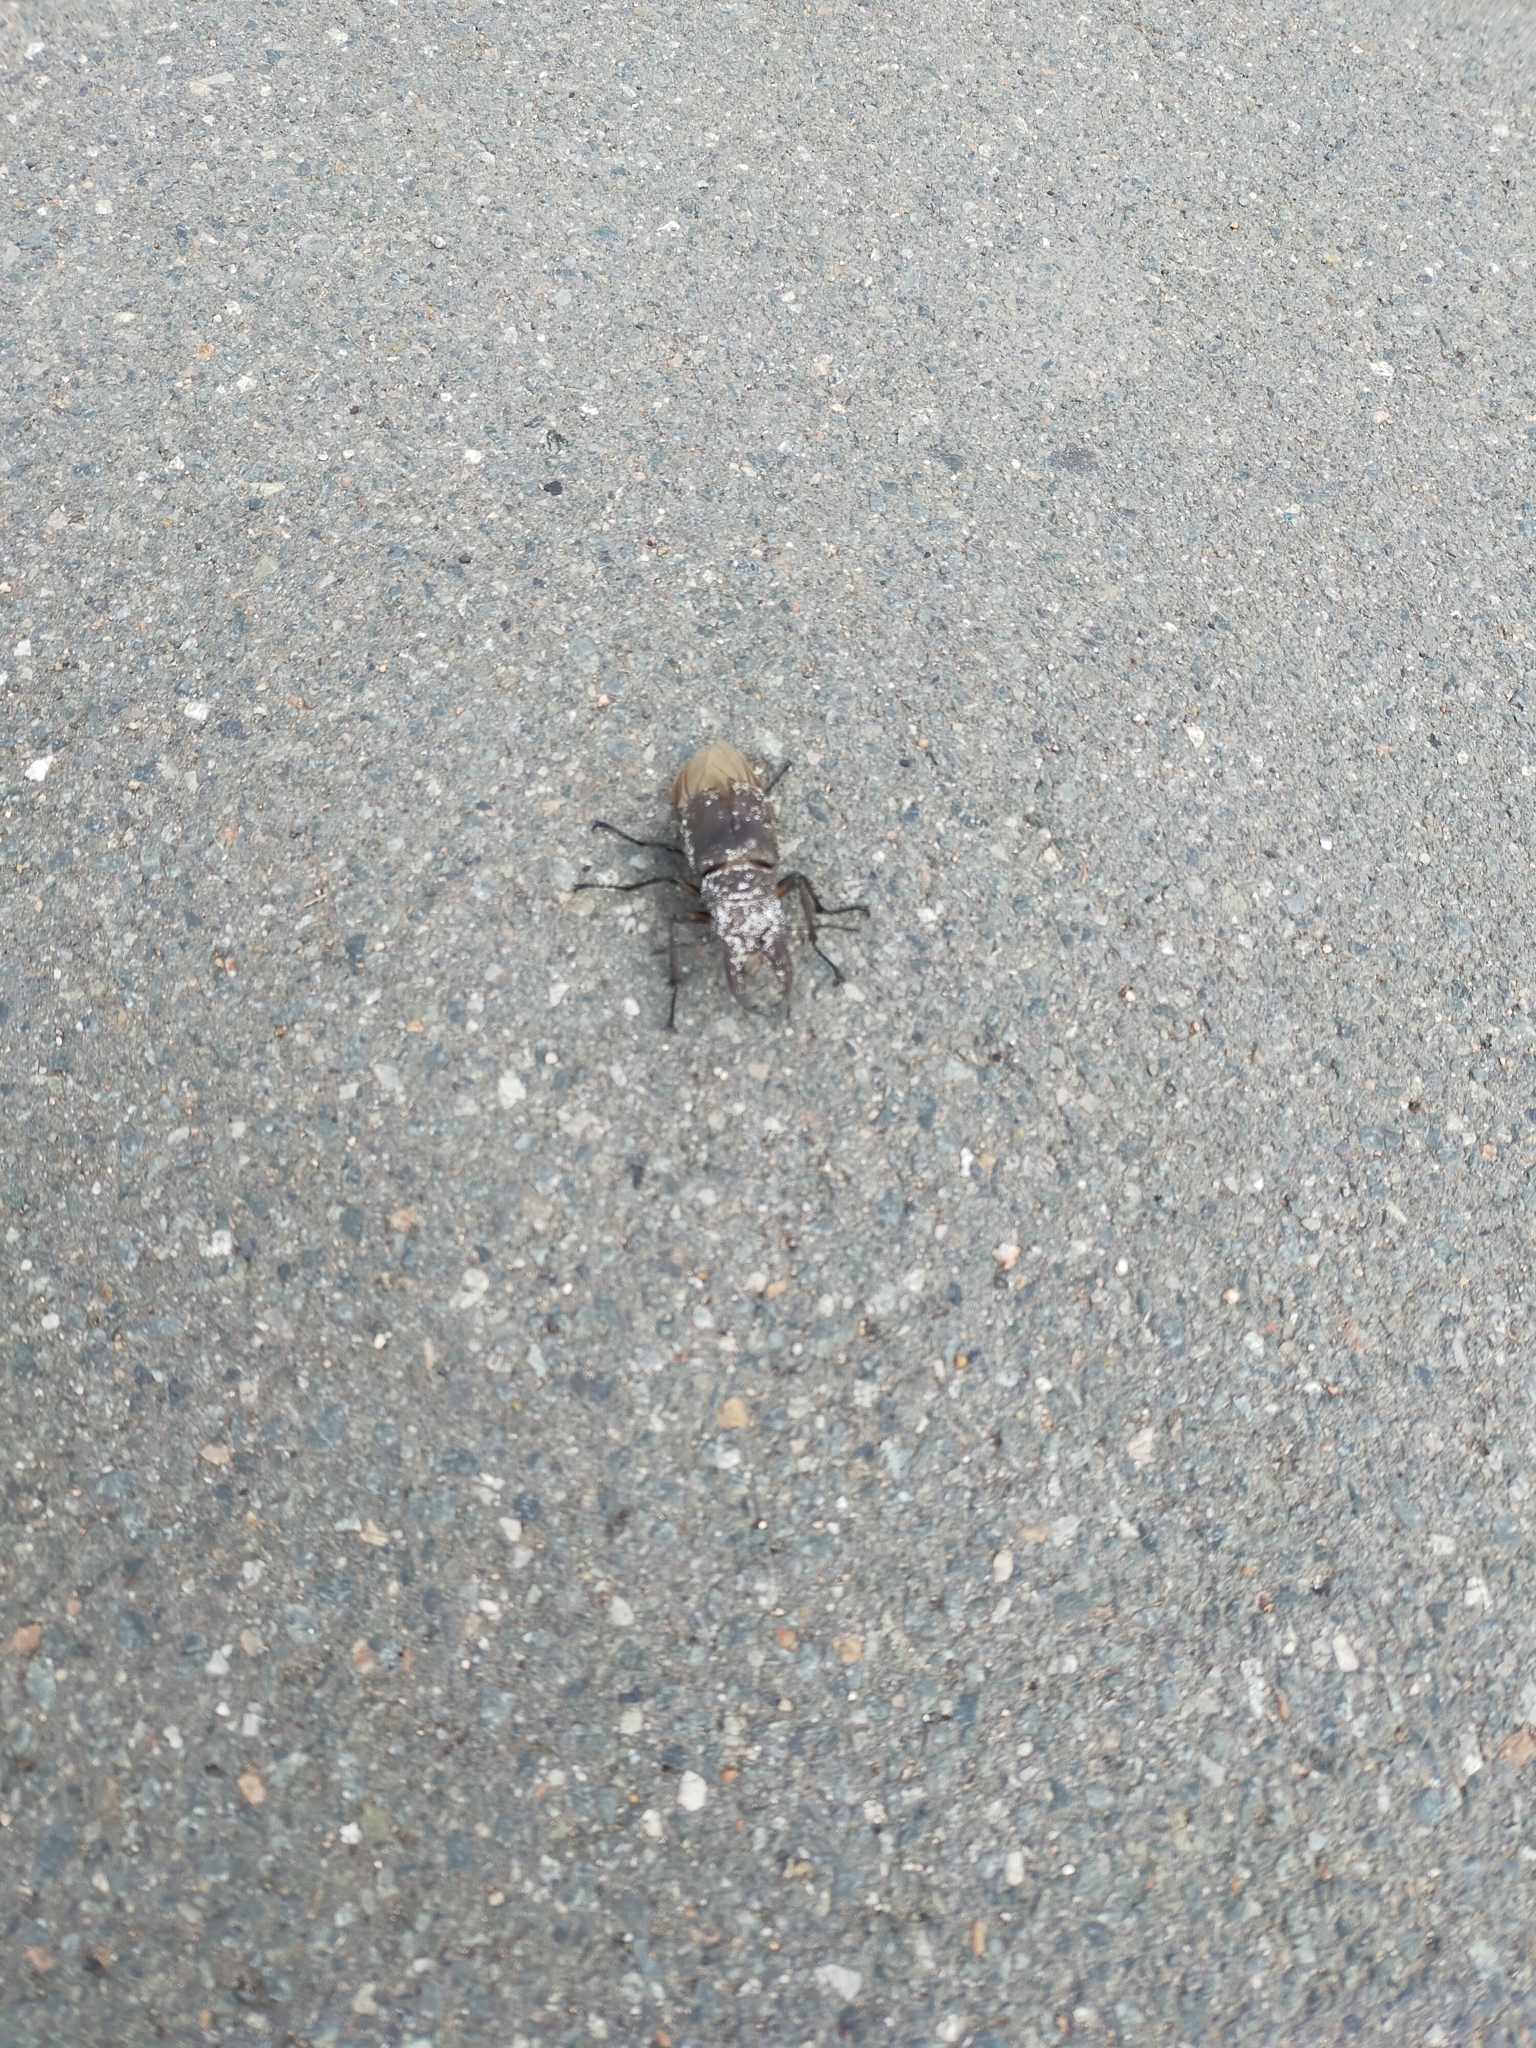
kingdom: Animalia
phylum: Arthropoda
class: Insecta
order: Coleoptera
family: Lucanidae
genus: Lucanus
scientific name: Lucanus maculifemoratus
